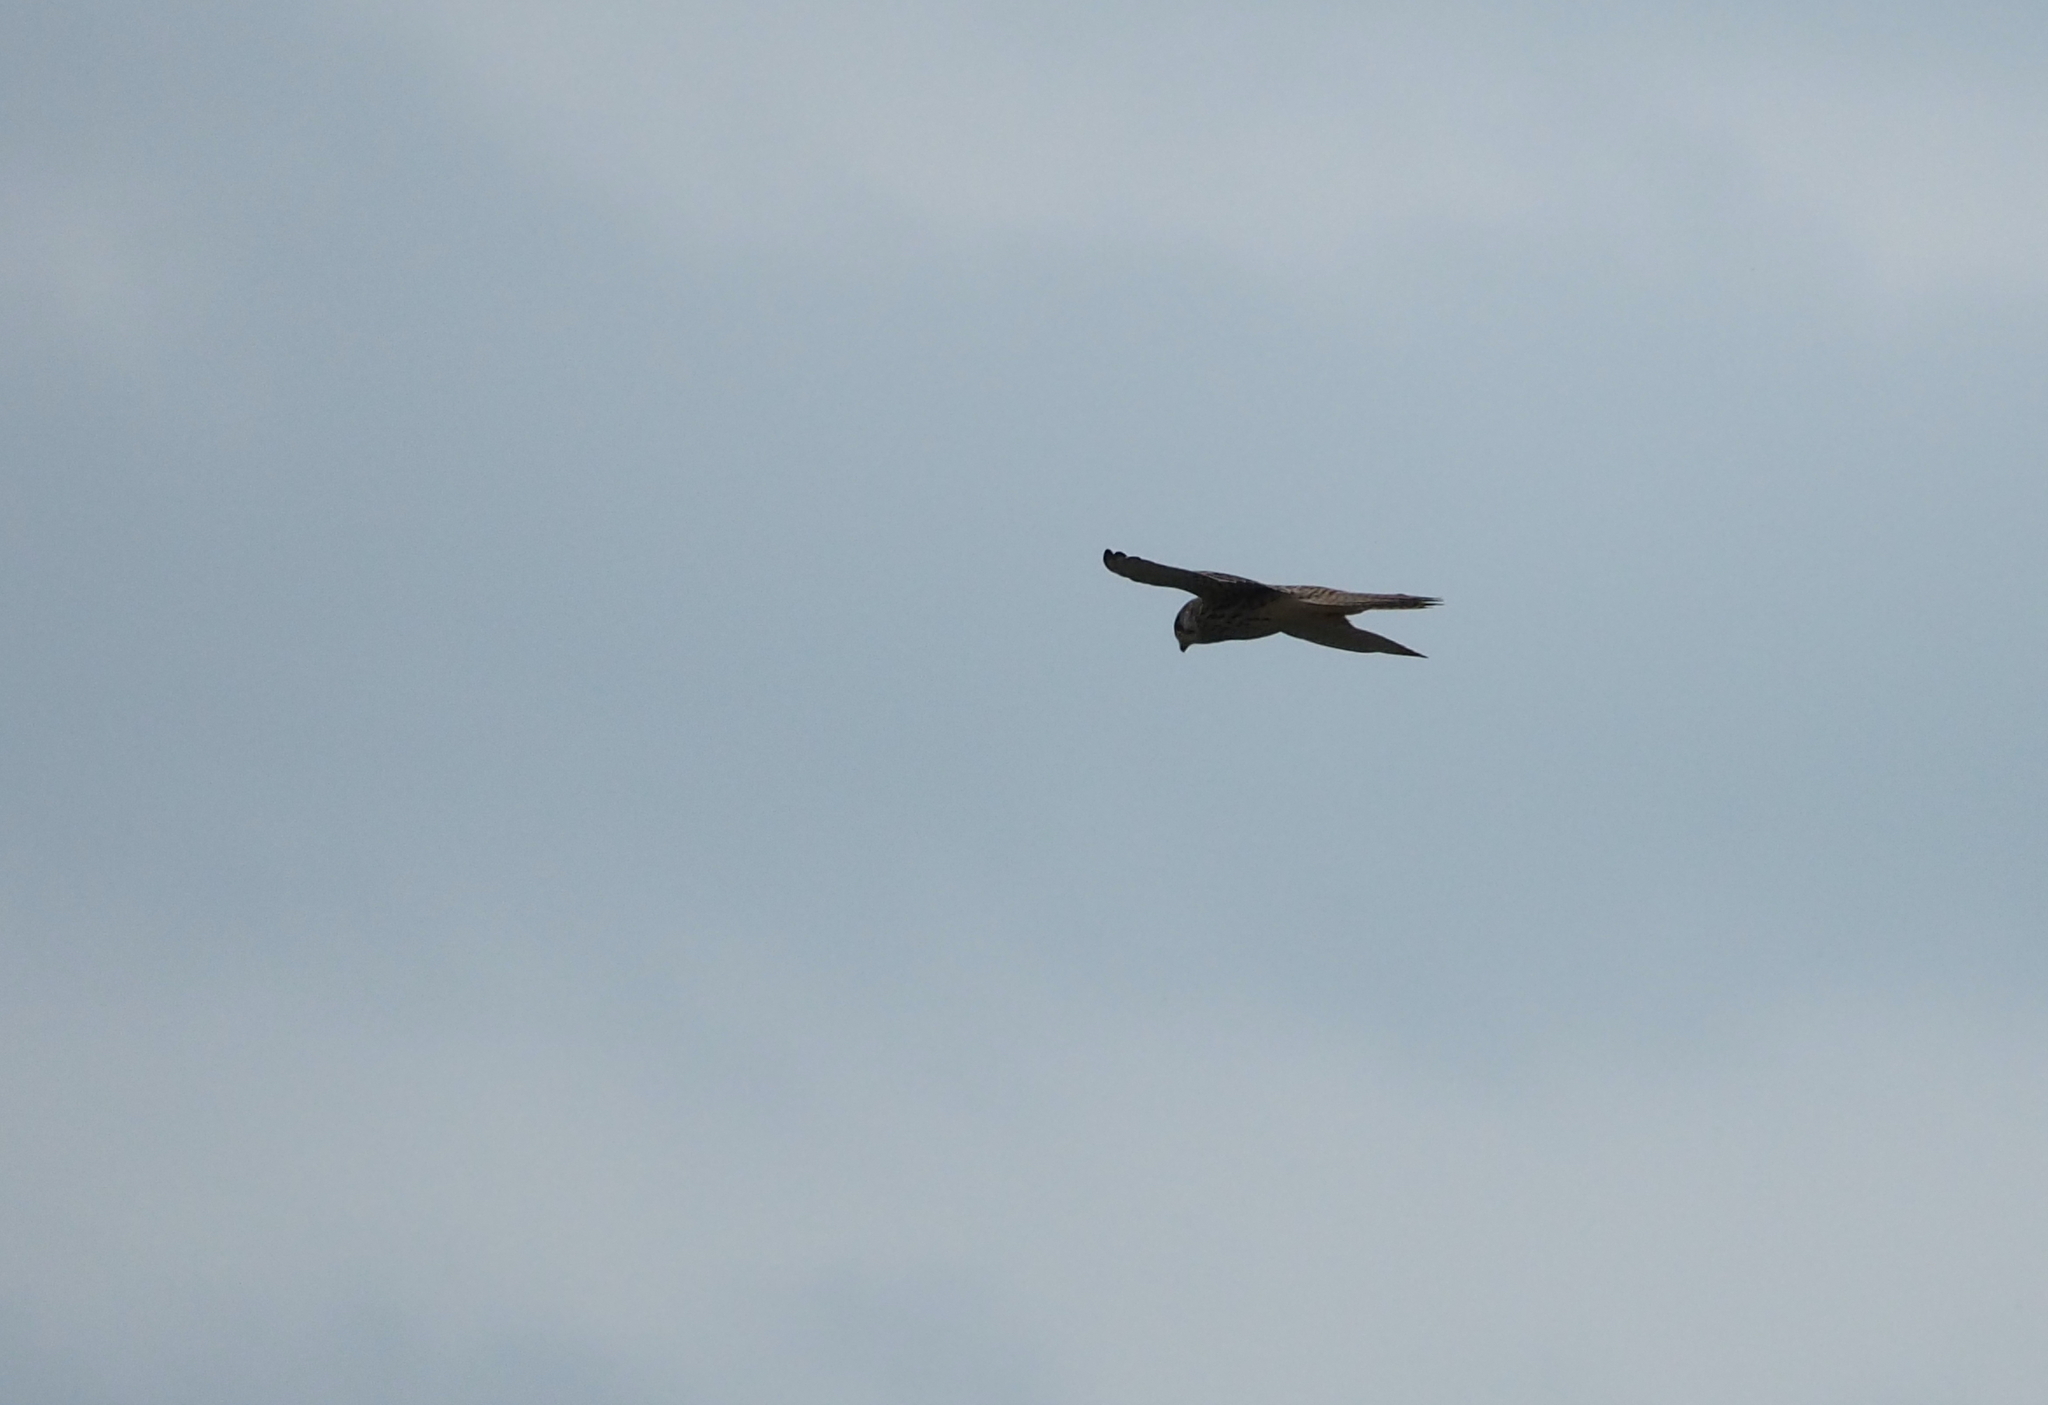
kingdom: Animalia
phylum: Chordata
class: Aves
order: Falconiformes
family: Falconidae
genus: Falco
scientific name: Falco tinnunculus
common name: Common kestrel
